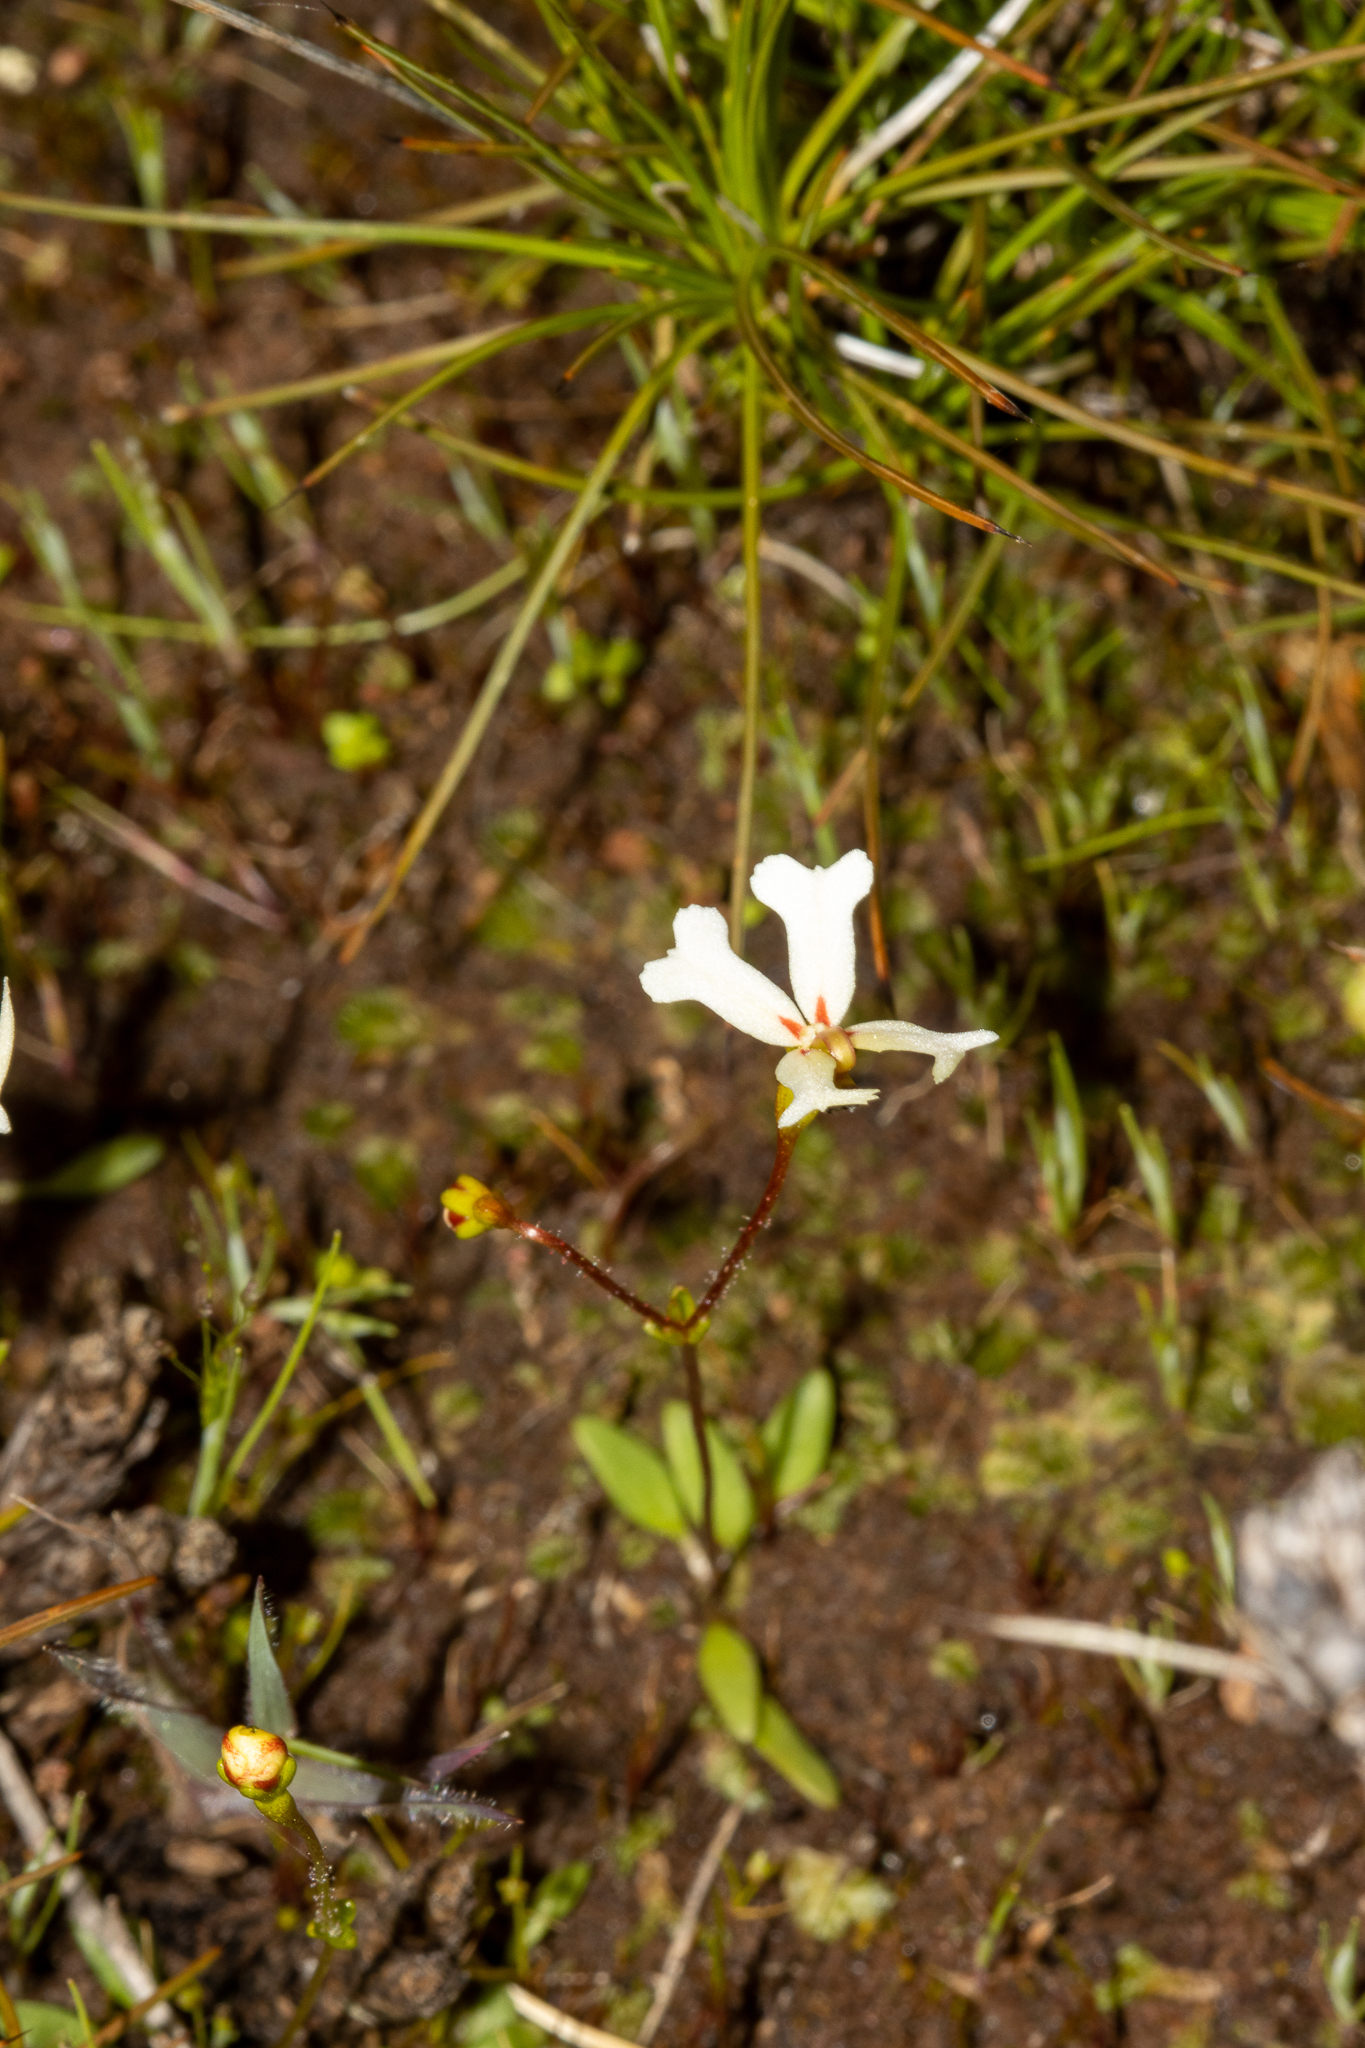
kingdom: Plantae
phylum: Tracheophyta
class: Magnoliopsida
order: Asterales
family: Stylidiaceae
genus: Stylidium
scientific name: Stylidium emarginatum
